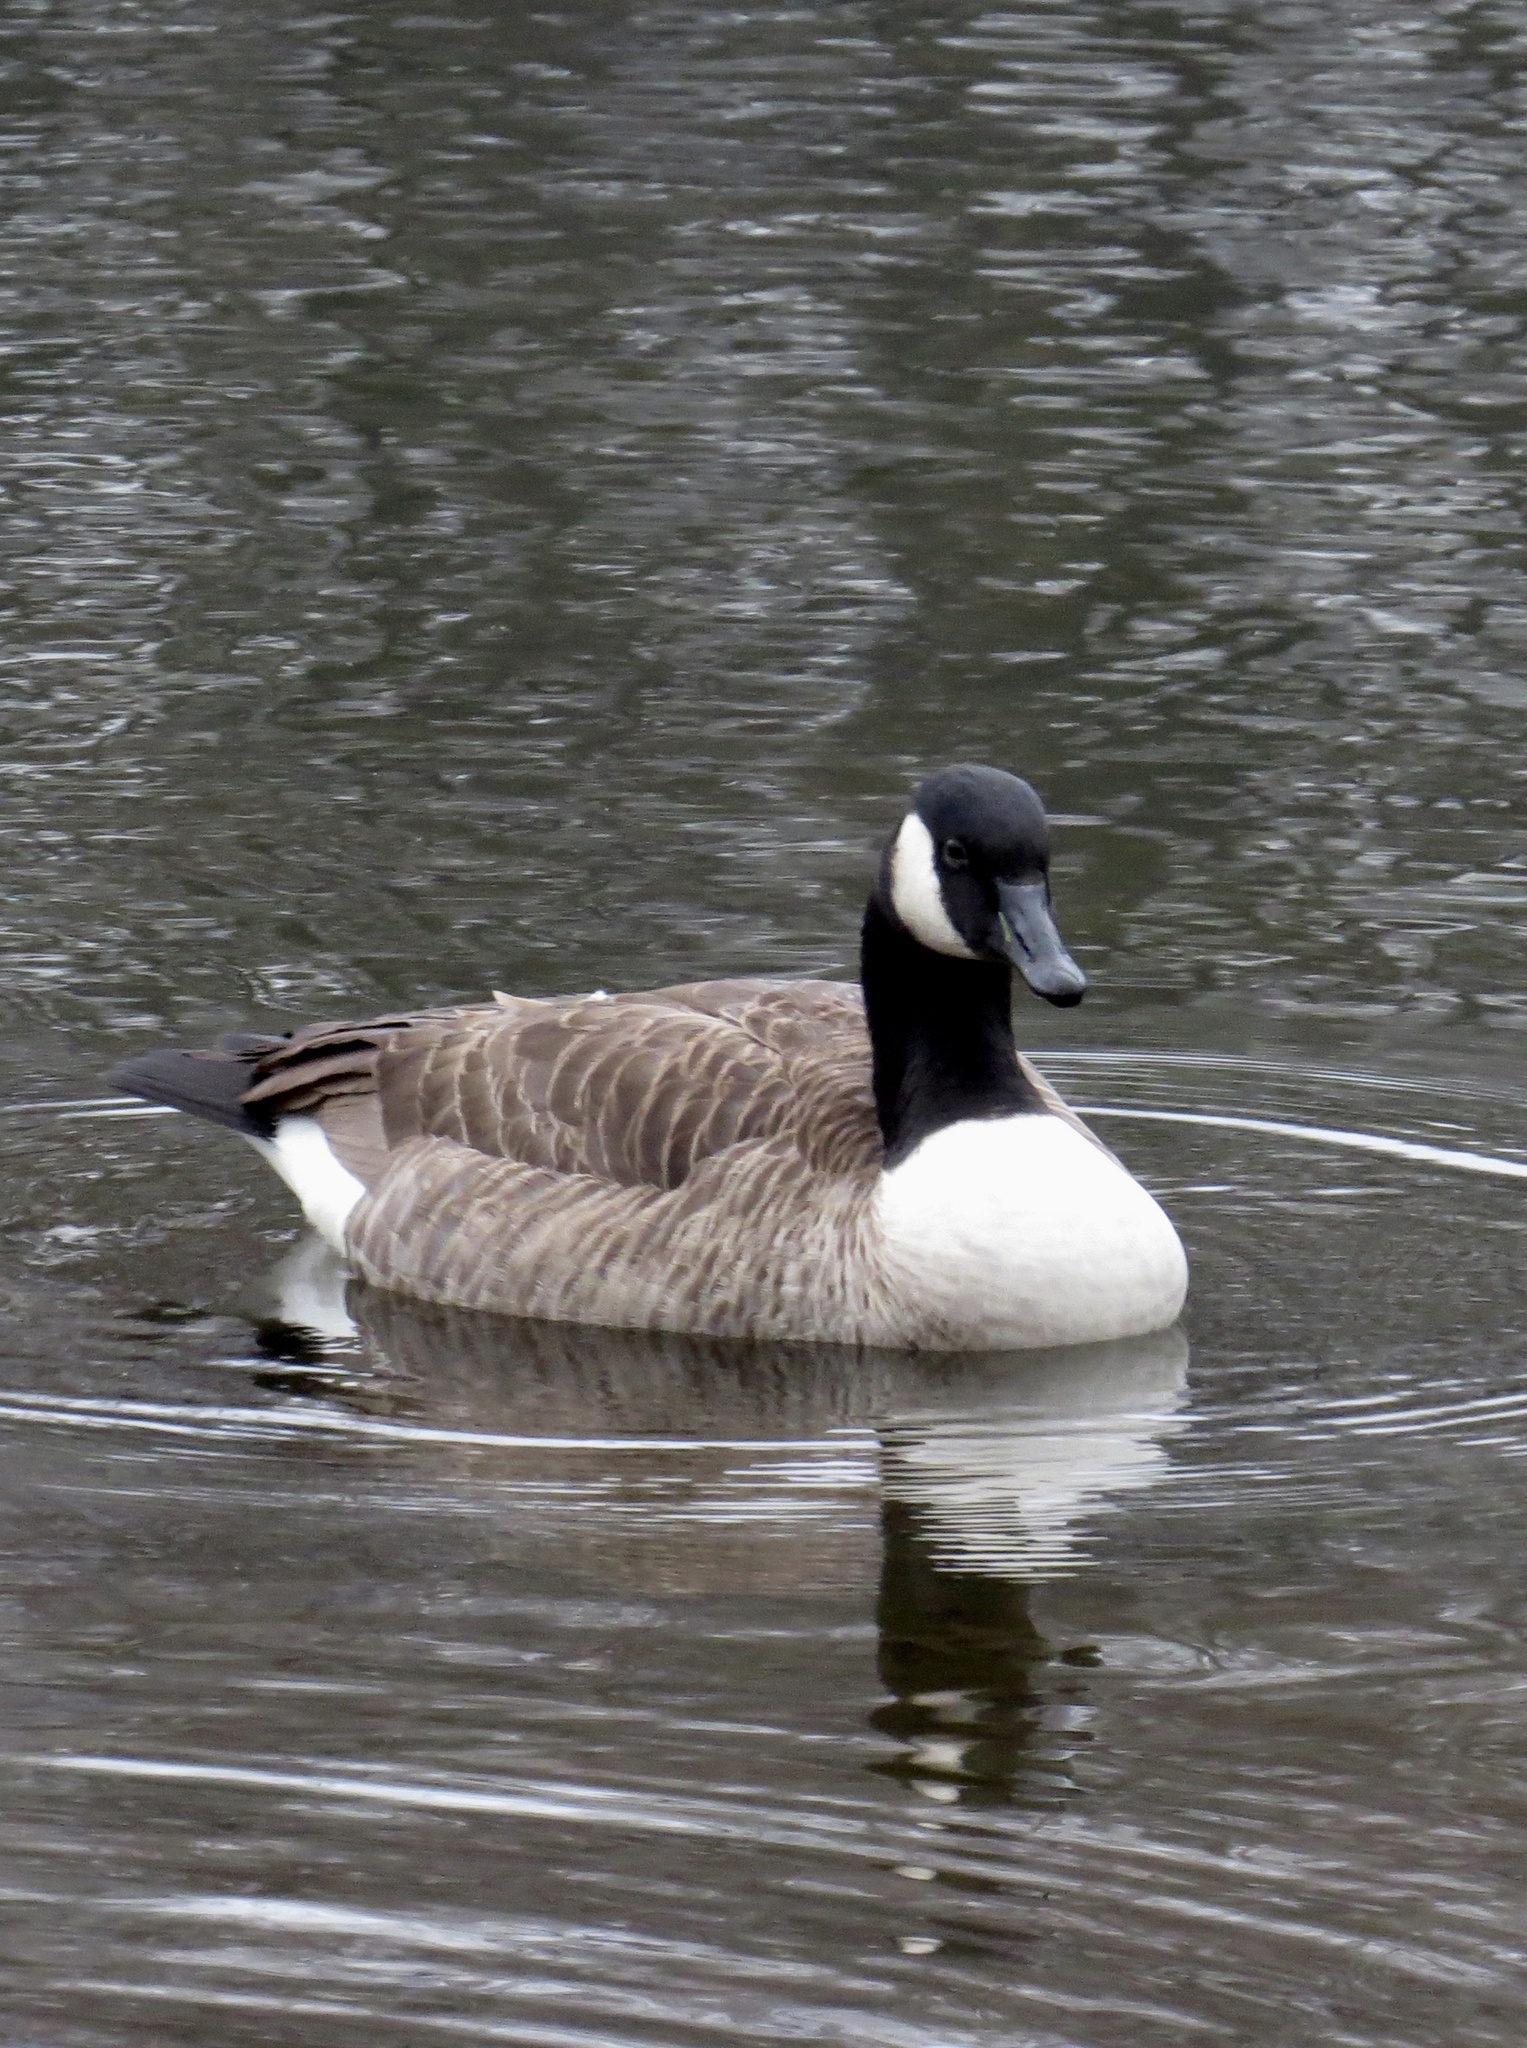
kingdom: Animalia
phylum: Chordata
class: Aves
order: Anseriformes
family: Anatidae
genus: Branta
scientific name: Branta canadensis
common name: Canada goose
